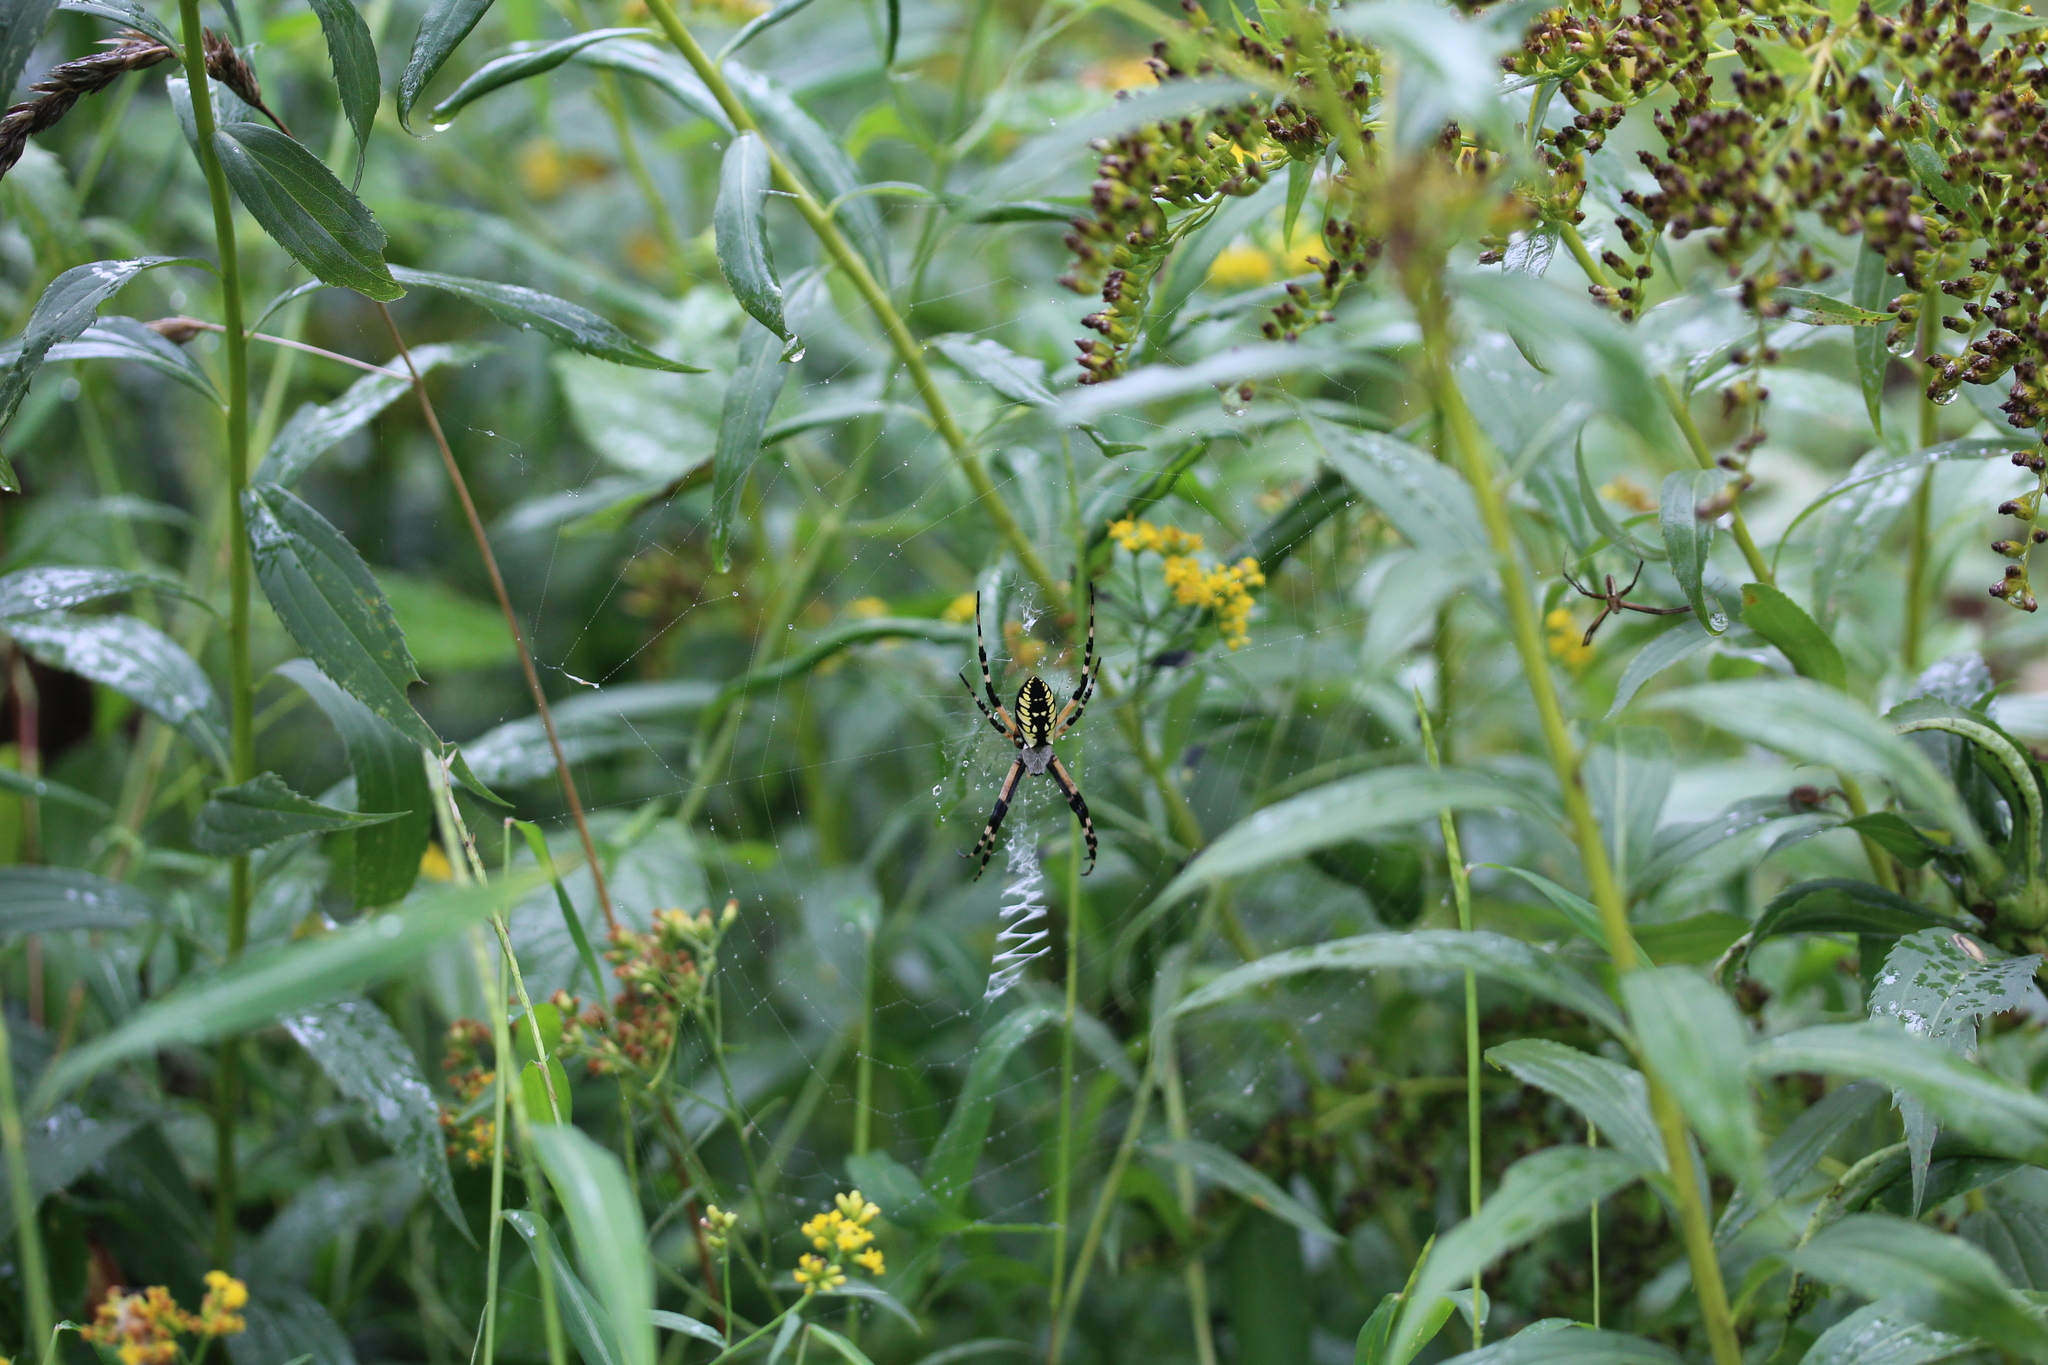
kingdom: Animalia
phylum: Arthropoda
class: Arachnida
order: Araneae
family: Araneidae
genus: Argiope
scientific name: Argiope aurantia
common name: Orb weavers
